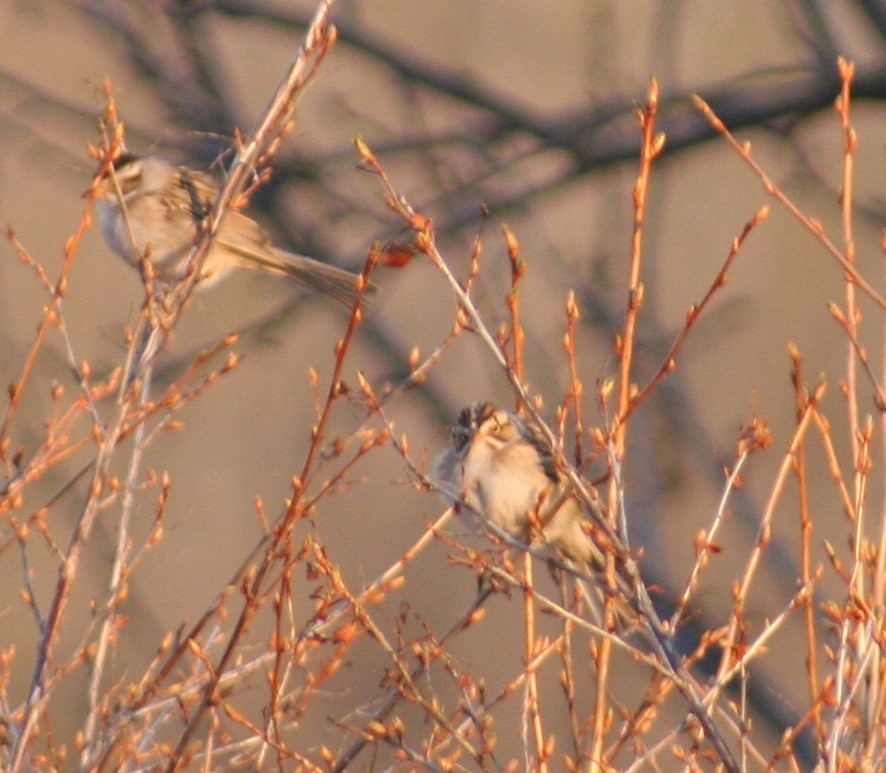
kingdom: Animalia
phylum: Chordata
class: Aves
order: Passeriformes
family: Passerellidae
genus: Spizella
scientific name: Spizella pallida
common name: Clay-colored sparrow
